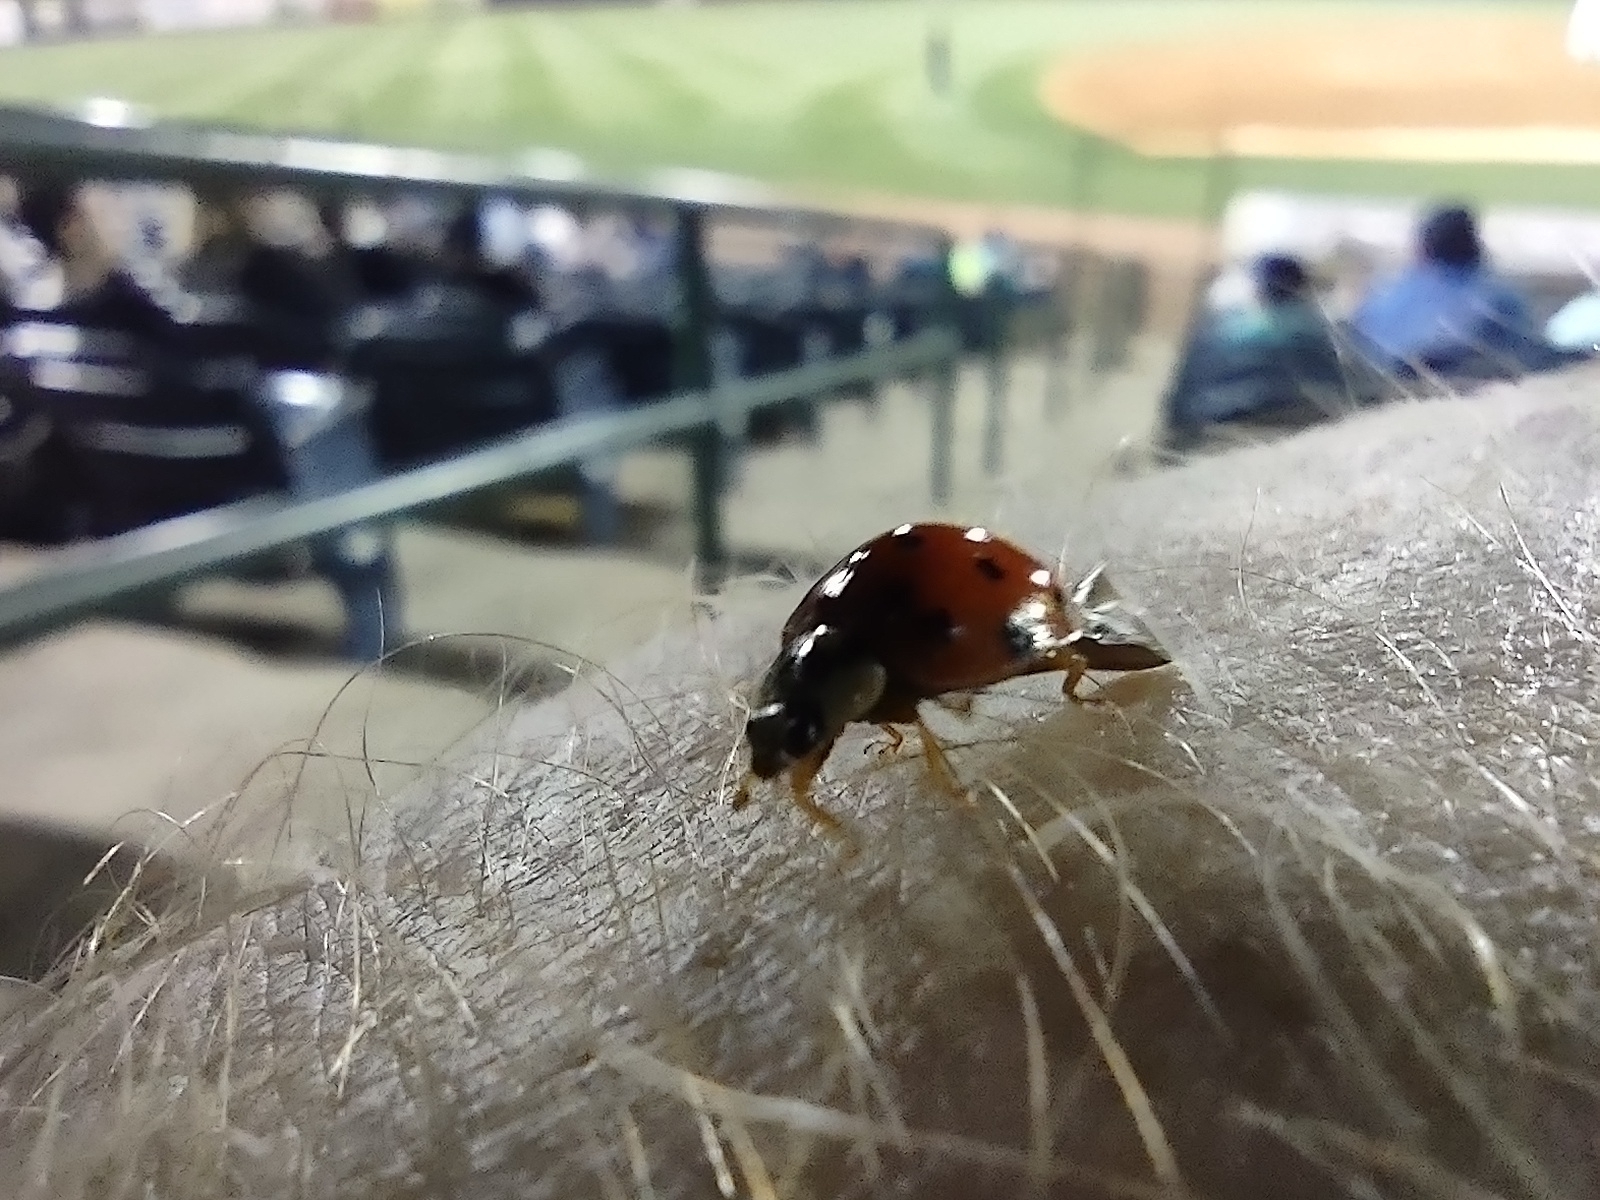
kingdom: Animalia
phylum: Arthropoda
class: Insecta
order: Coleoptera
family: Coccinellidae
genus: Harmonia
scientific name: Harmonia axyridis
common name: Harlequin ladybird
